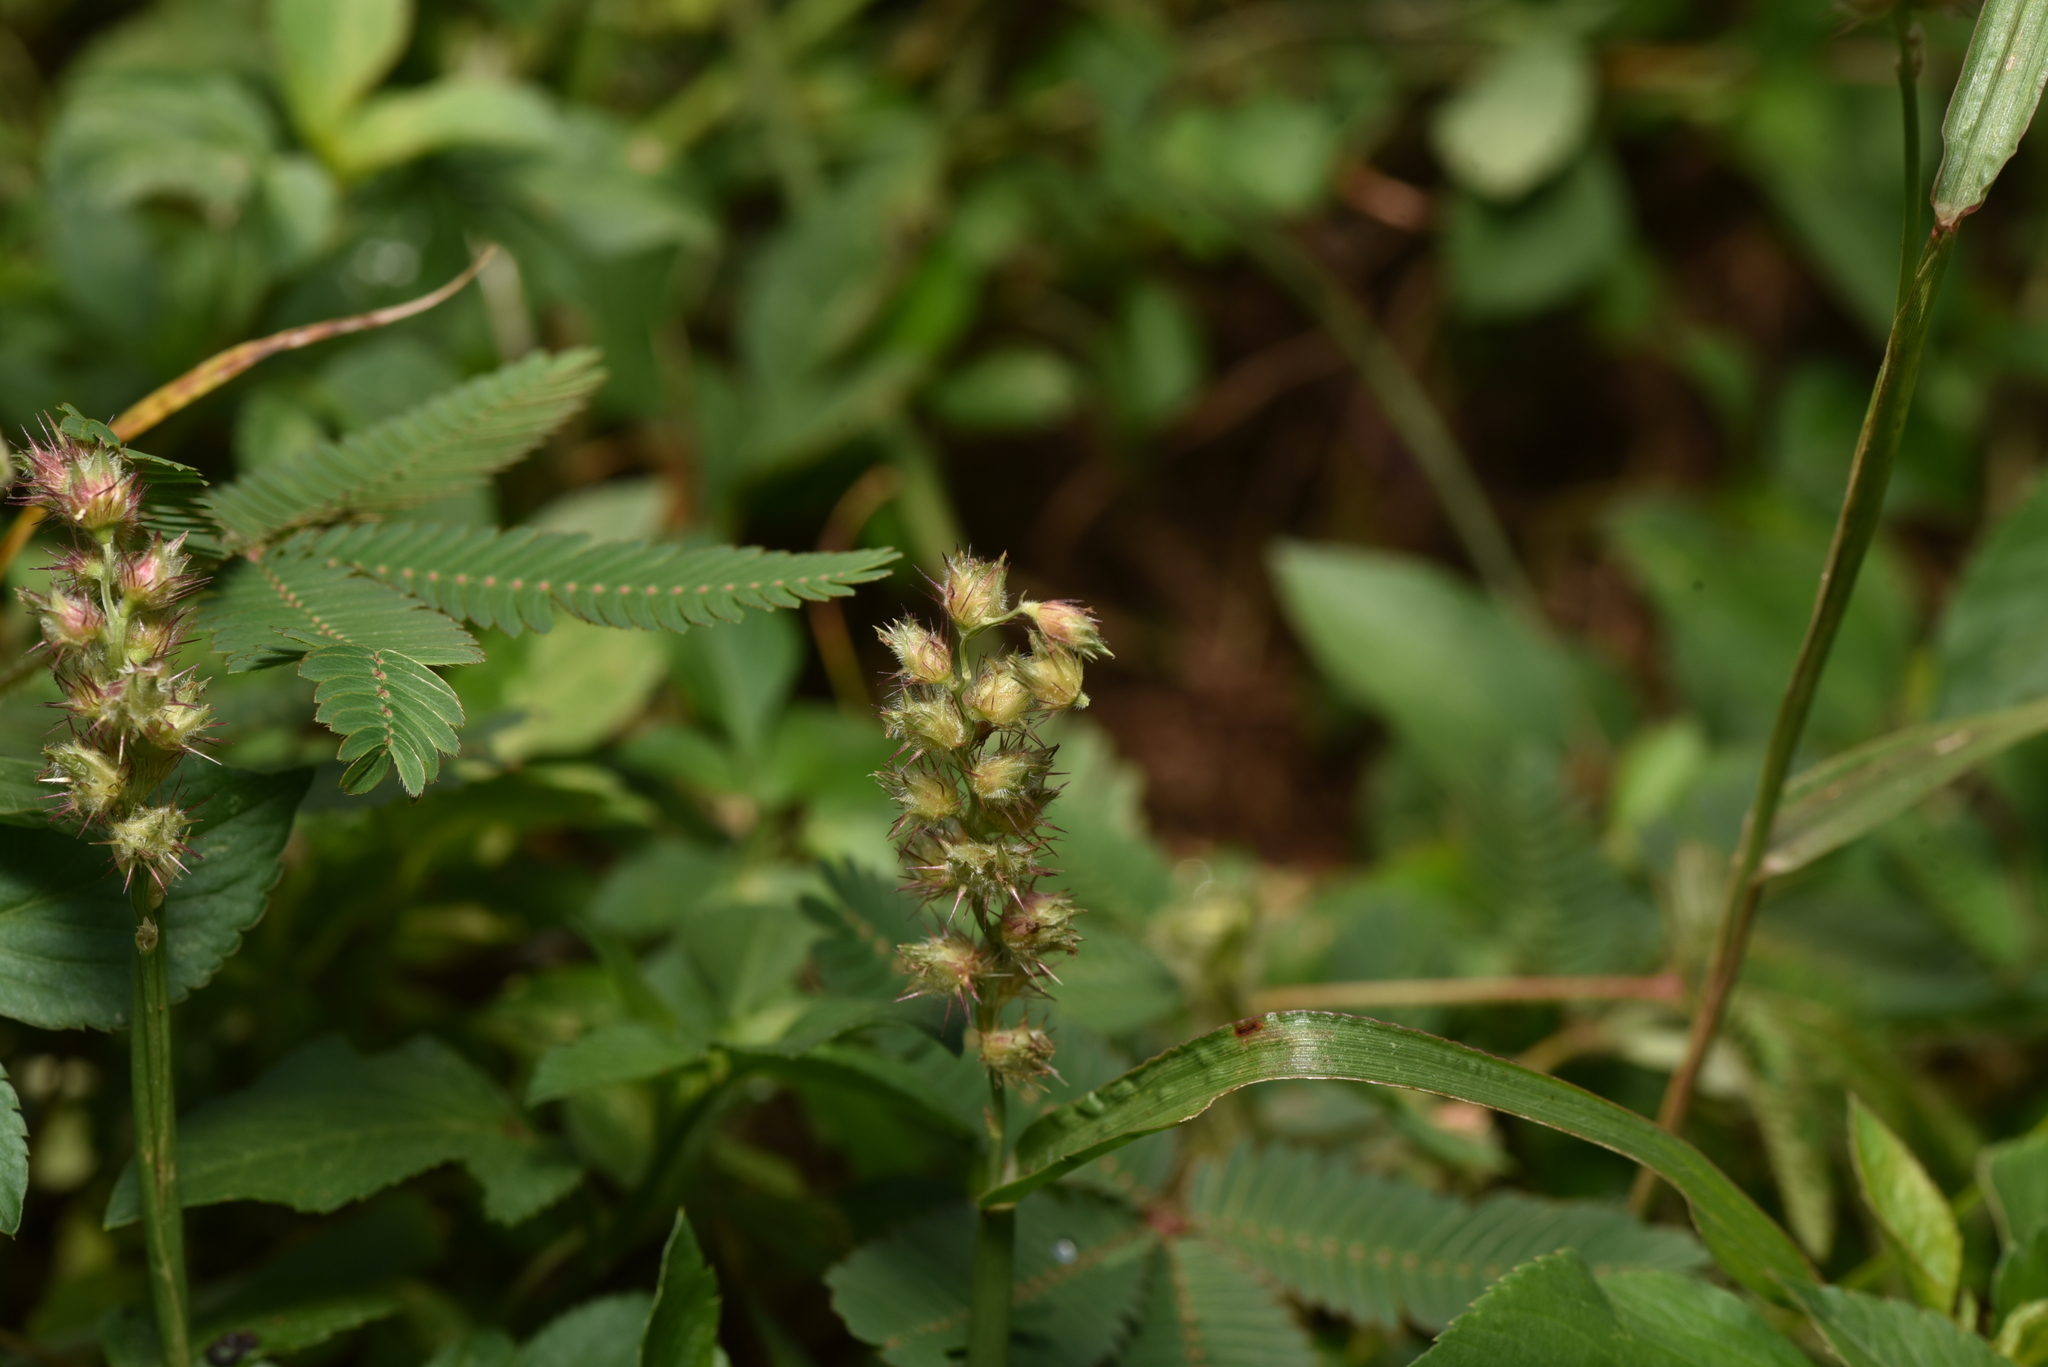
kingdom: Plantae
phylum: Tracheophyta
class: Liliopsida
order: Poales
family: Poaceae
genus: Cenchrus
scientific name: Cenchrus echinatus
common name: Southern sandbur
